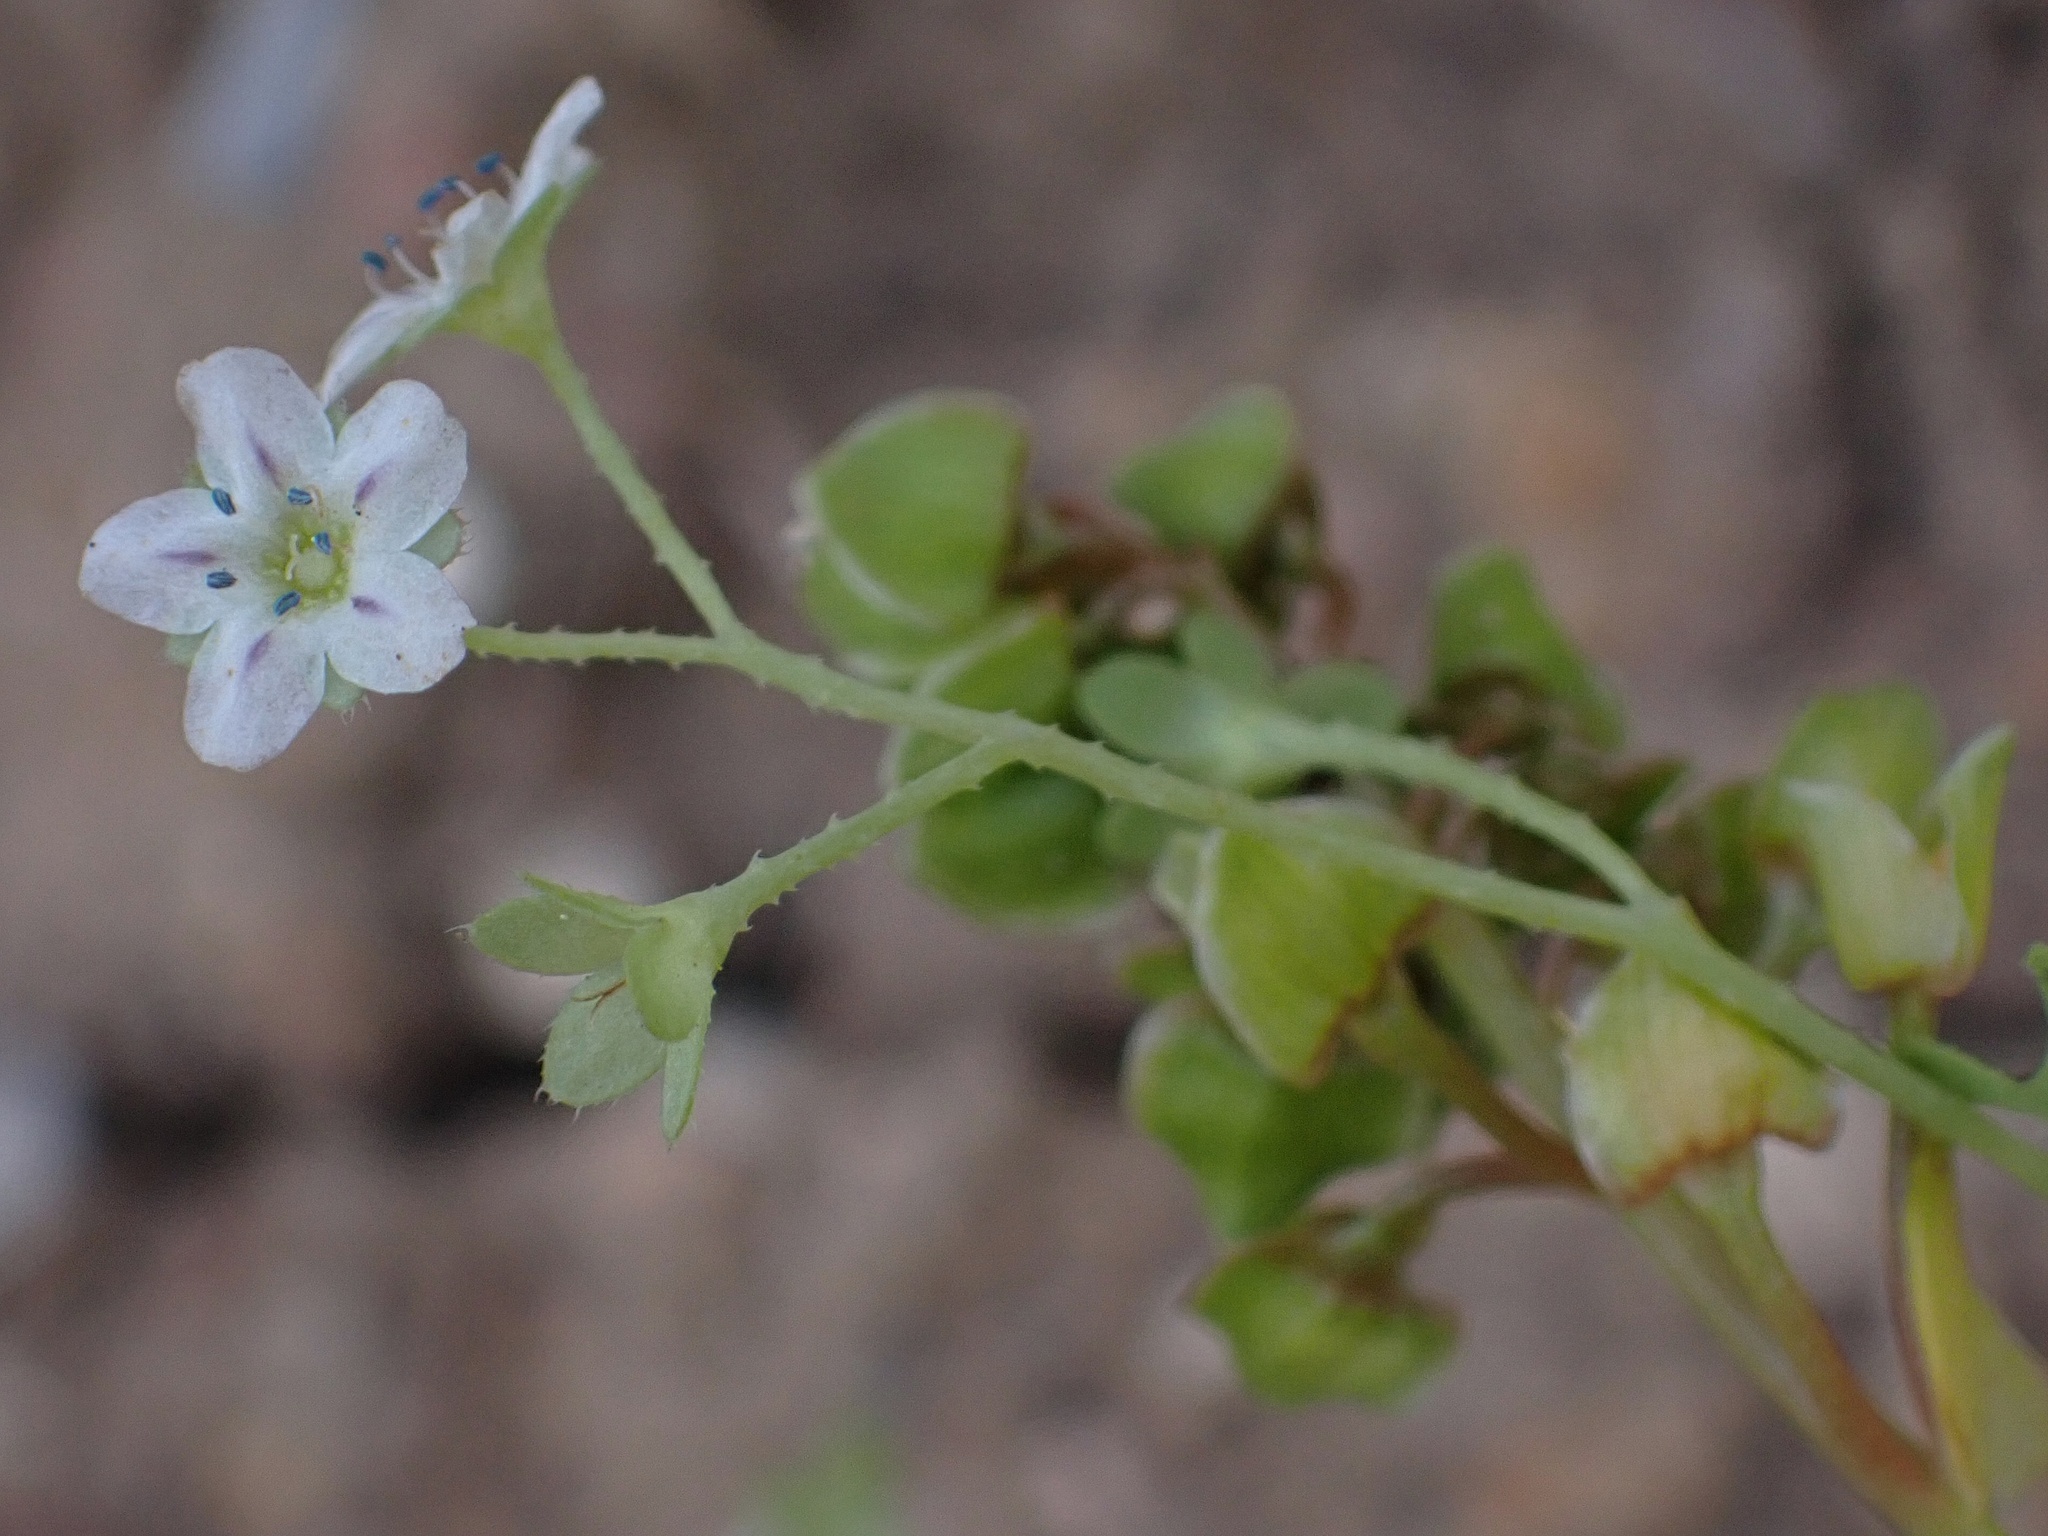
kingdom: Plantae
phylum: Tracheophyta
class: Magnoliopsida
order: Boraginales
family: Hydrophyllaceae
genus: Pholistoma
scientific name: Pholistoma membranaceum
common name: White fiesta-flower
